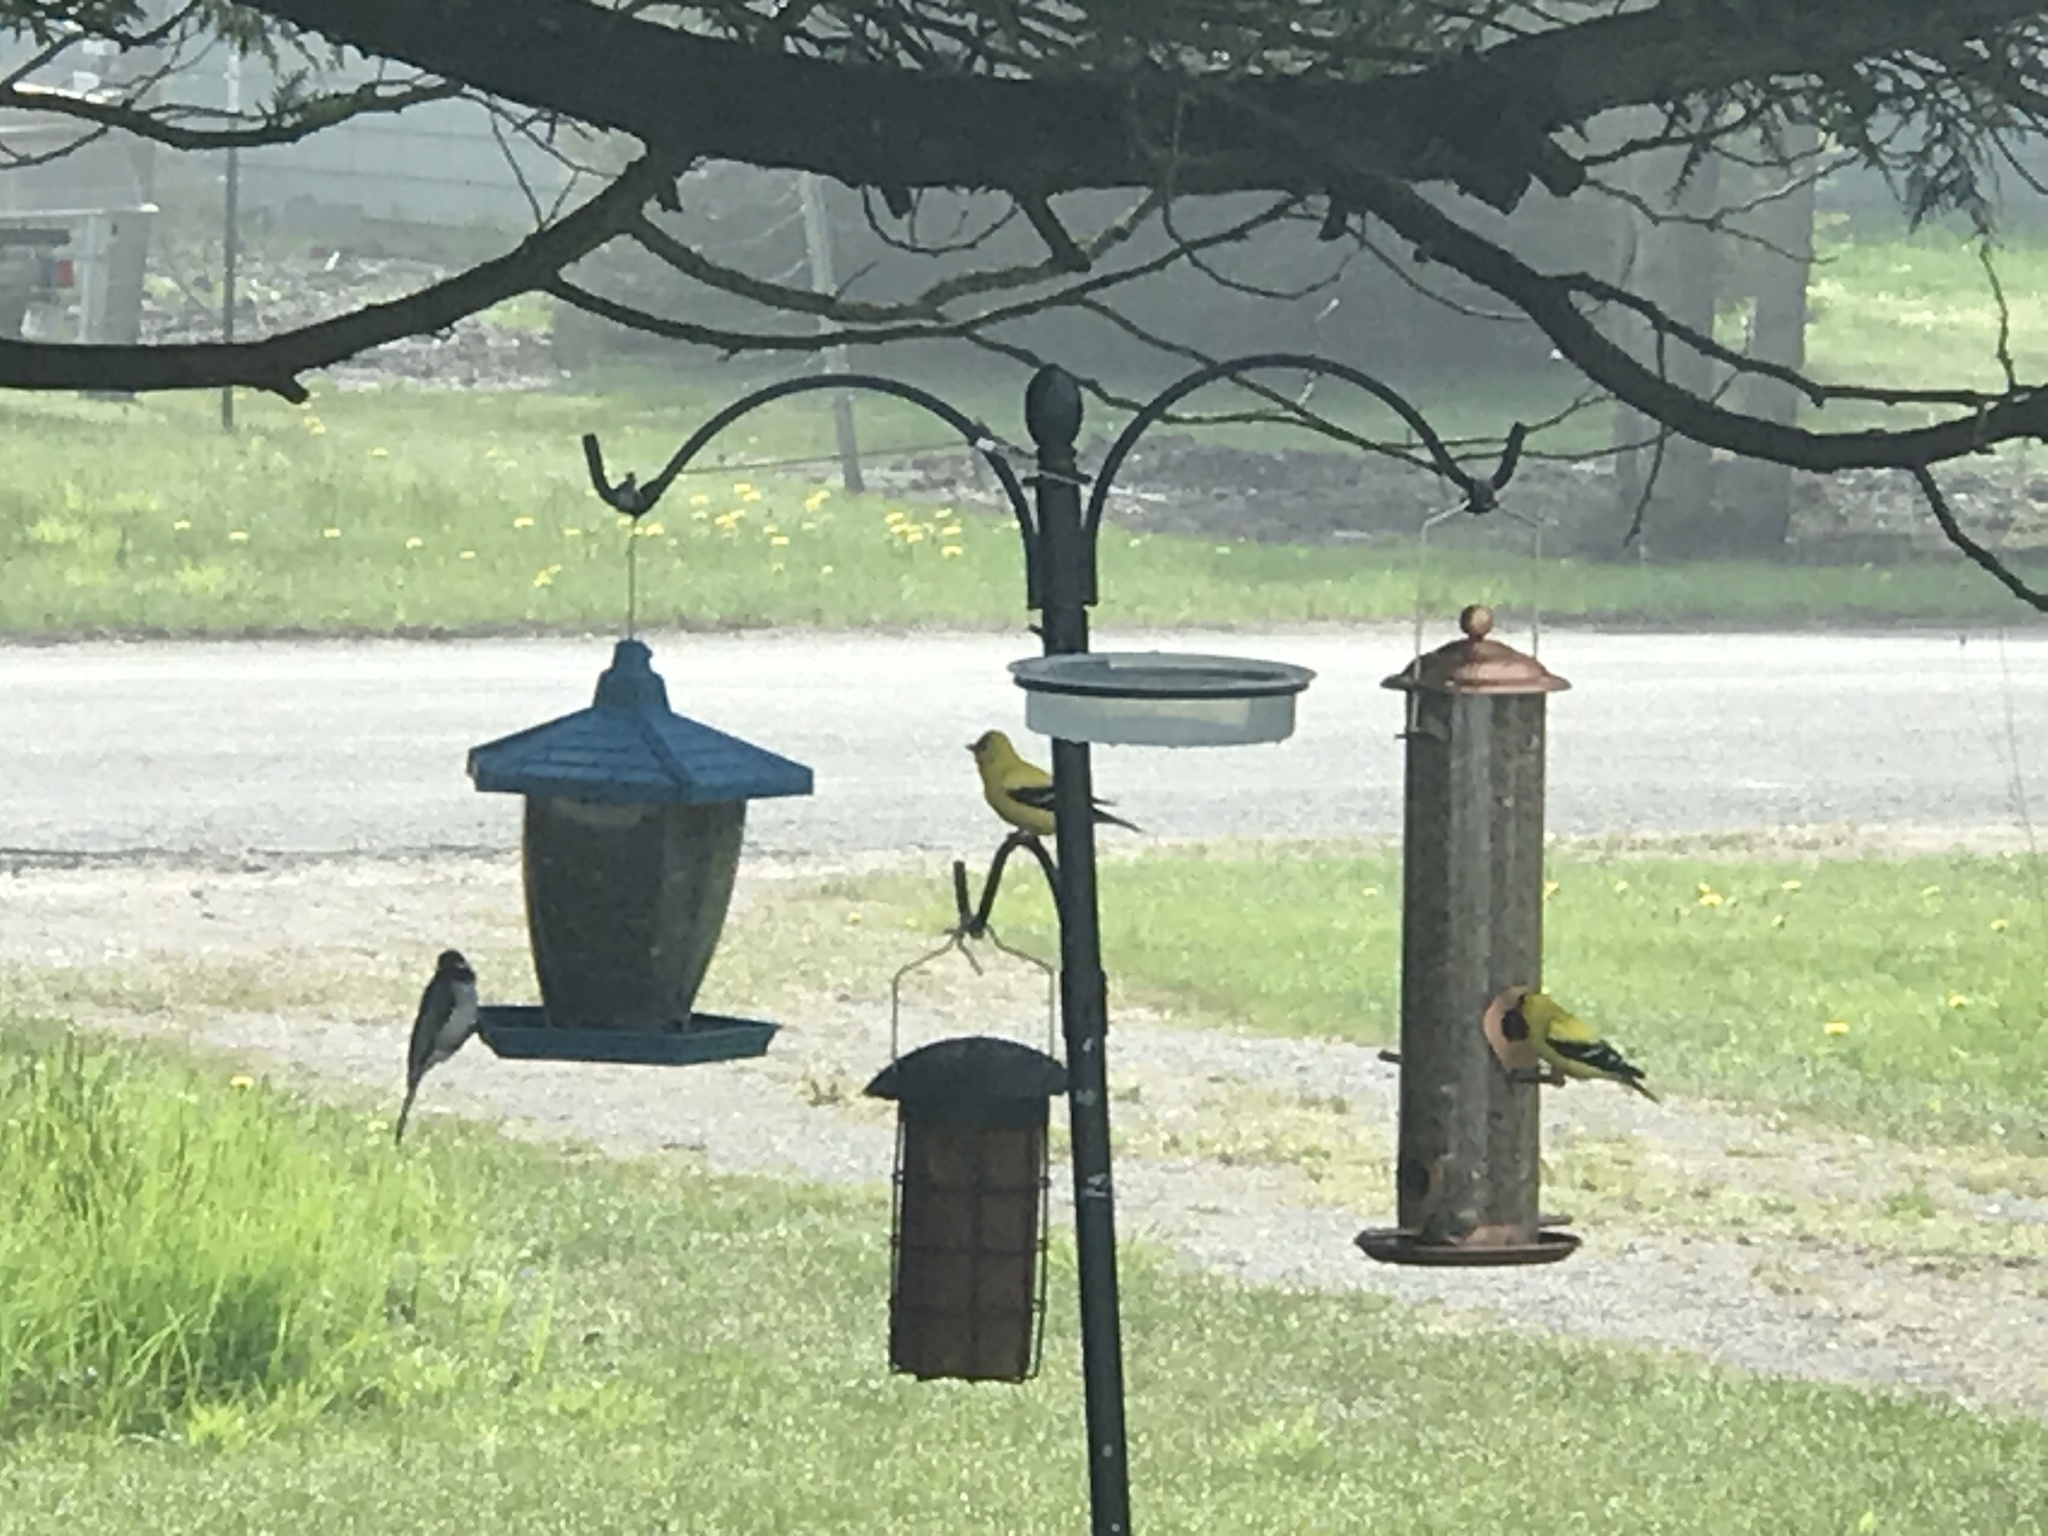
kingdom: Animalia
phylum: Chordata
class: Aves
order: Passeriformes
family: Fringillidae
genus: Spinus
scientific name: Spinus tristis
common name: American goldfinch
